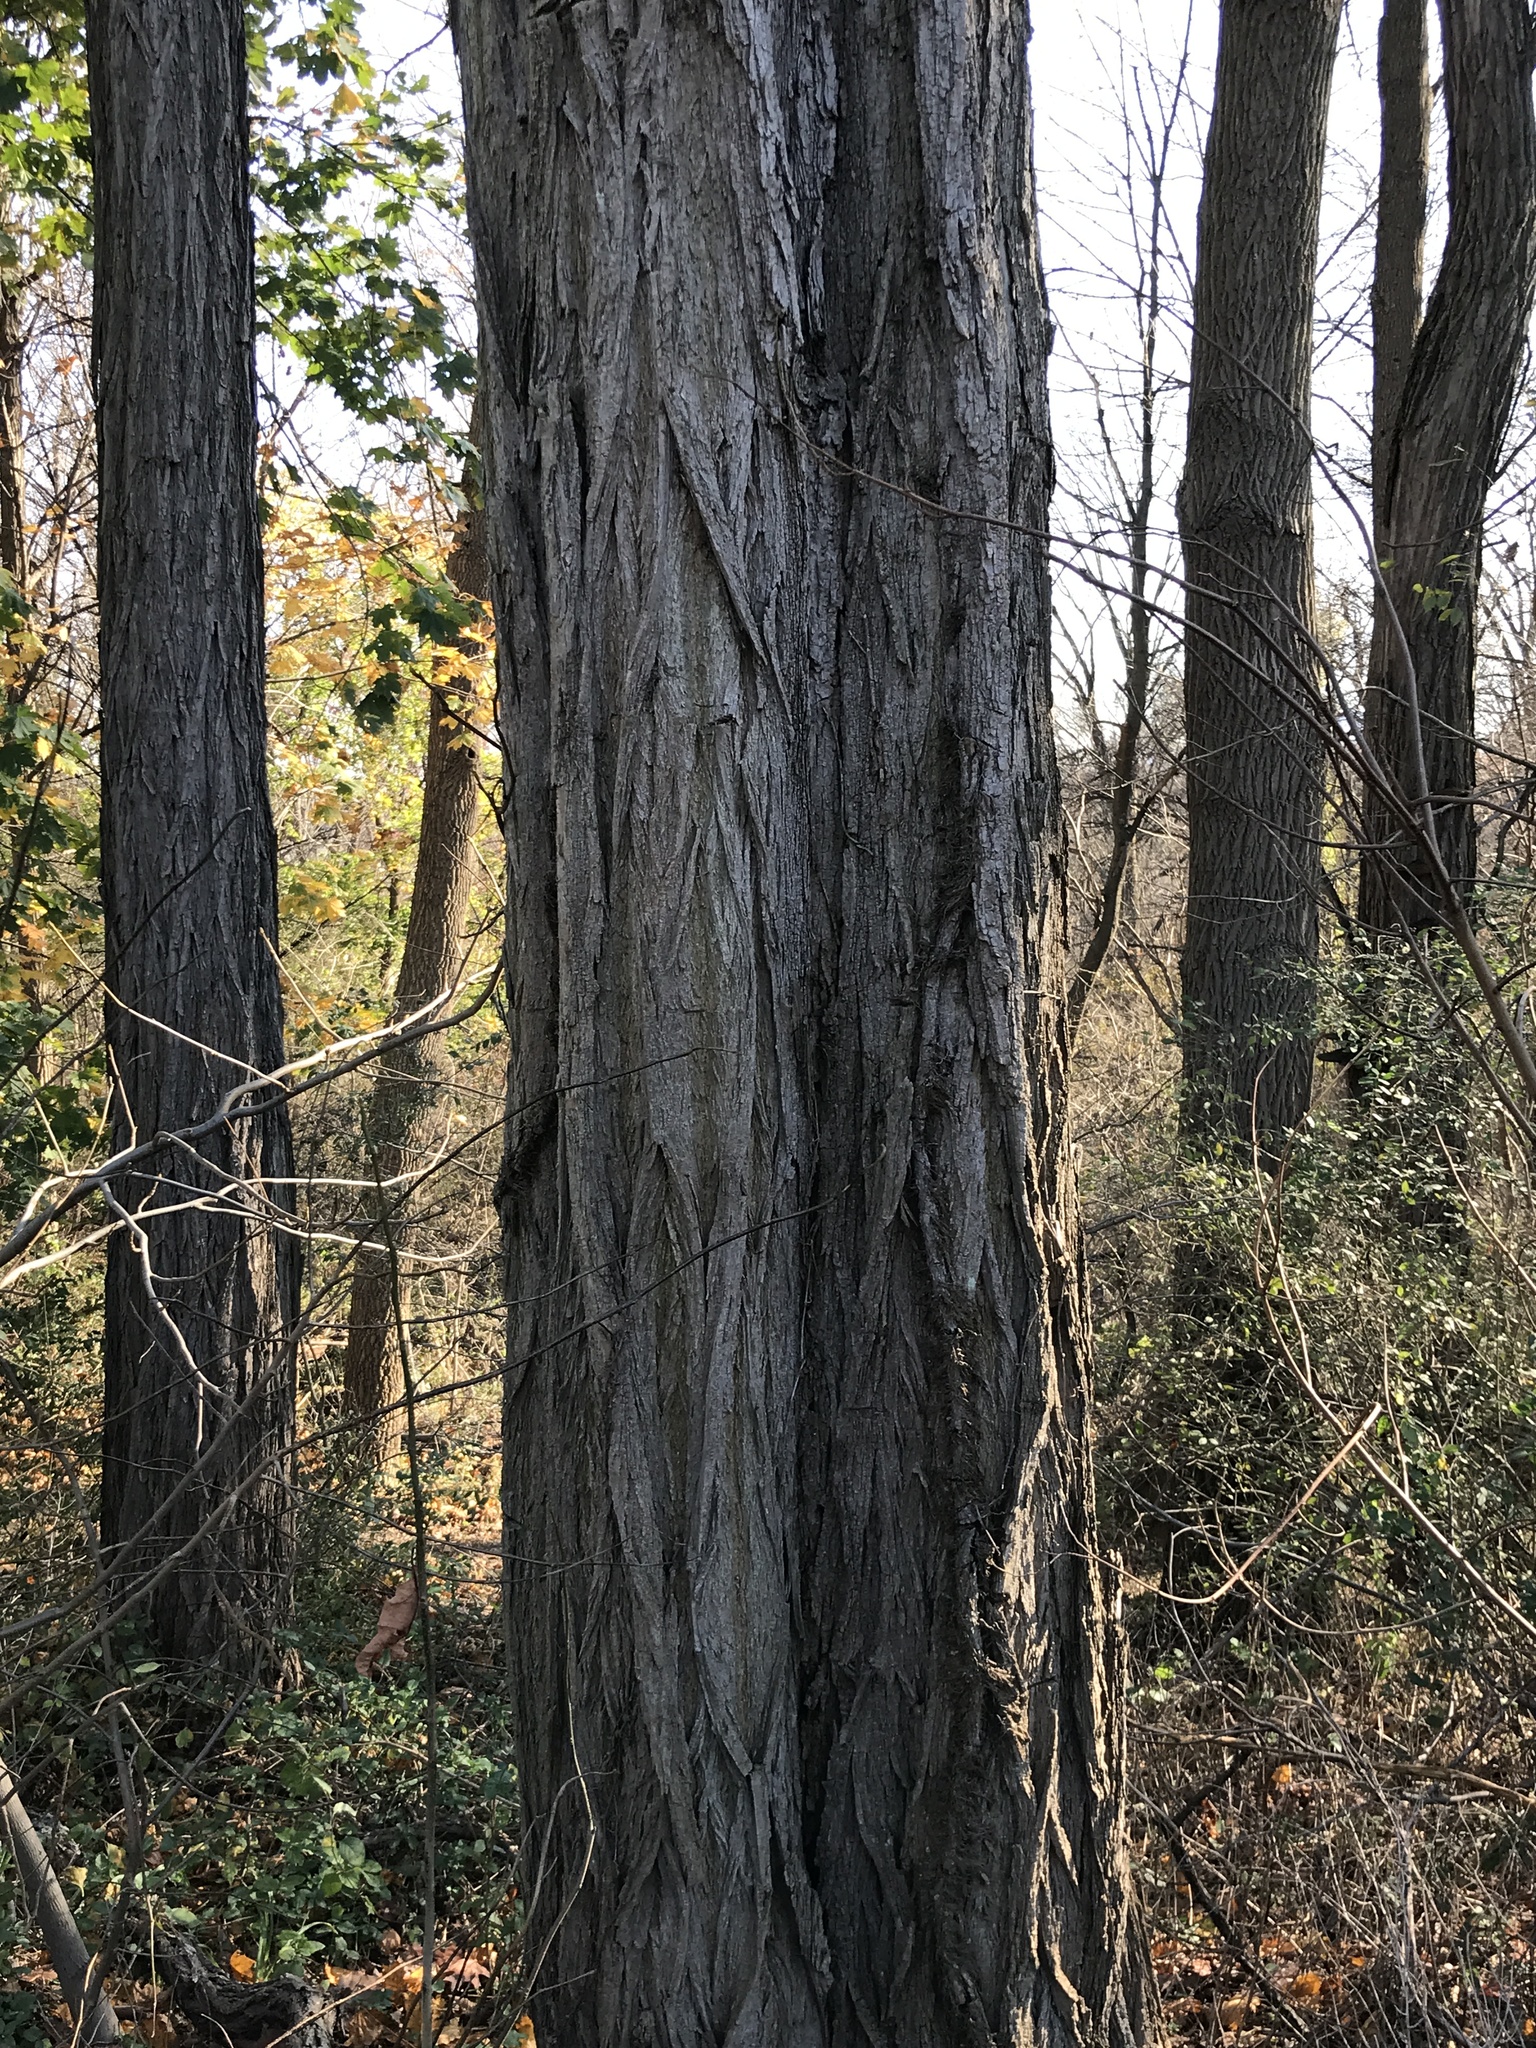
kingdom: Plantae
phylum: Tracheophyta
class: Magnoliopsida
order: Fabales
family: Fabaceae
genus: Robinia
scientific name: Robinia pseudoacacia
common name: Black locust
